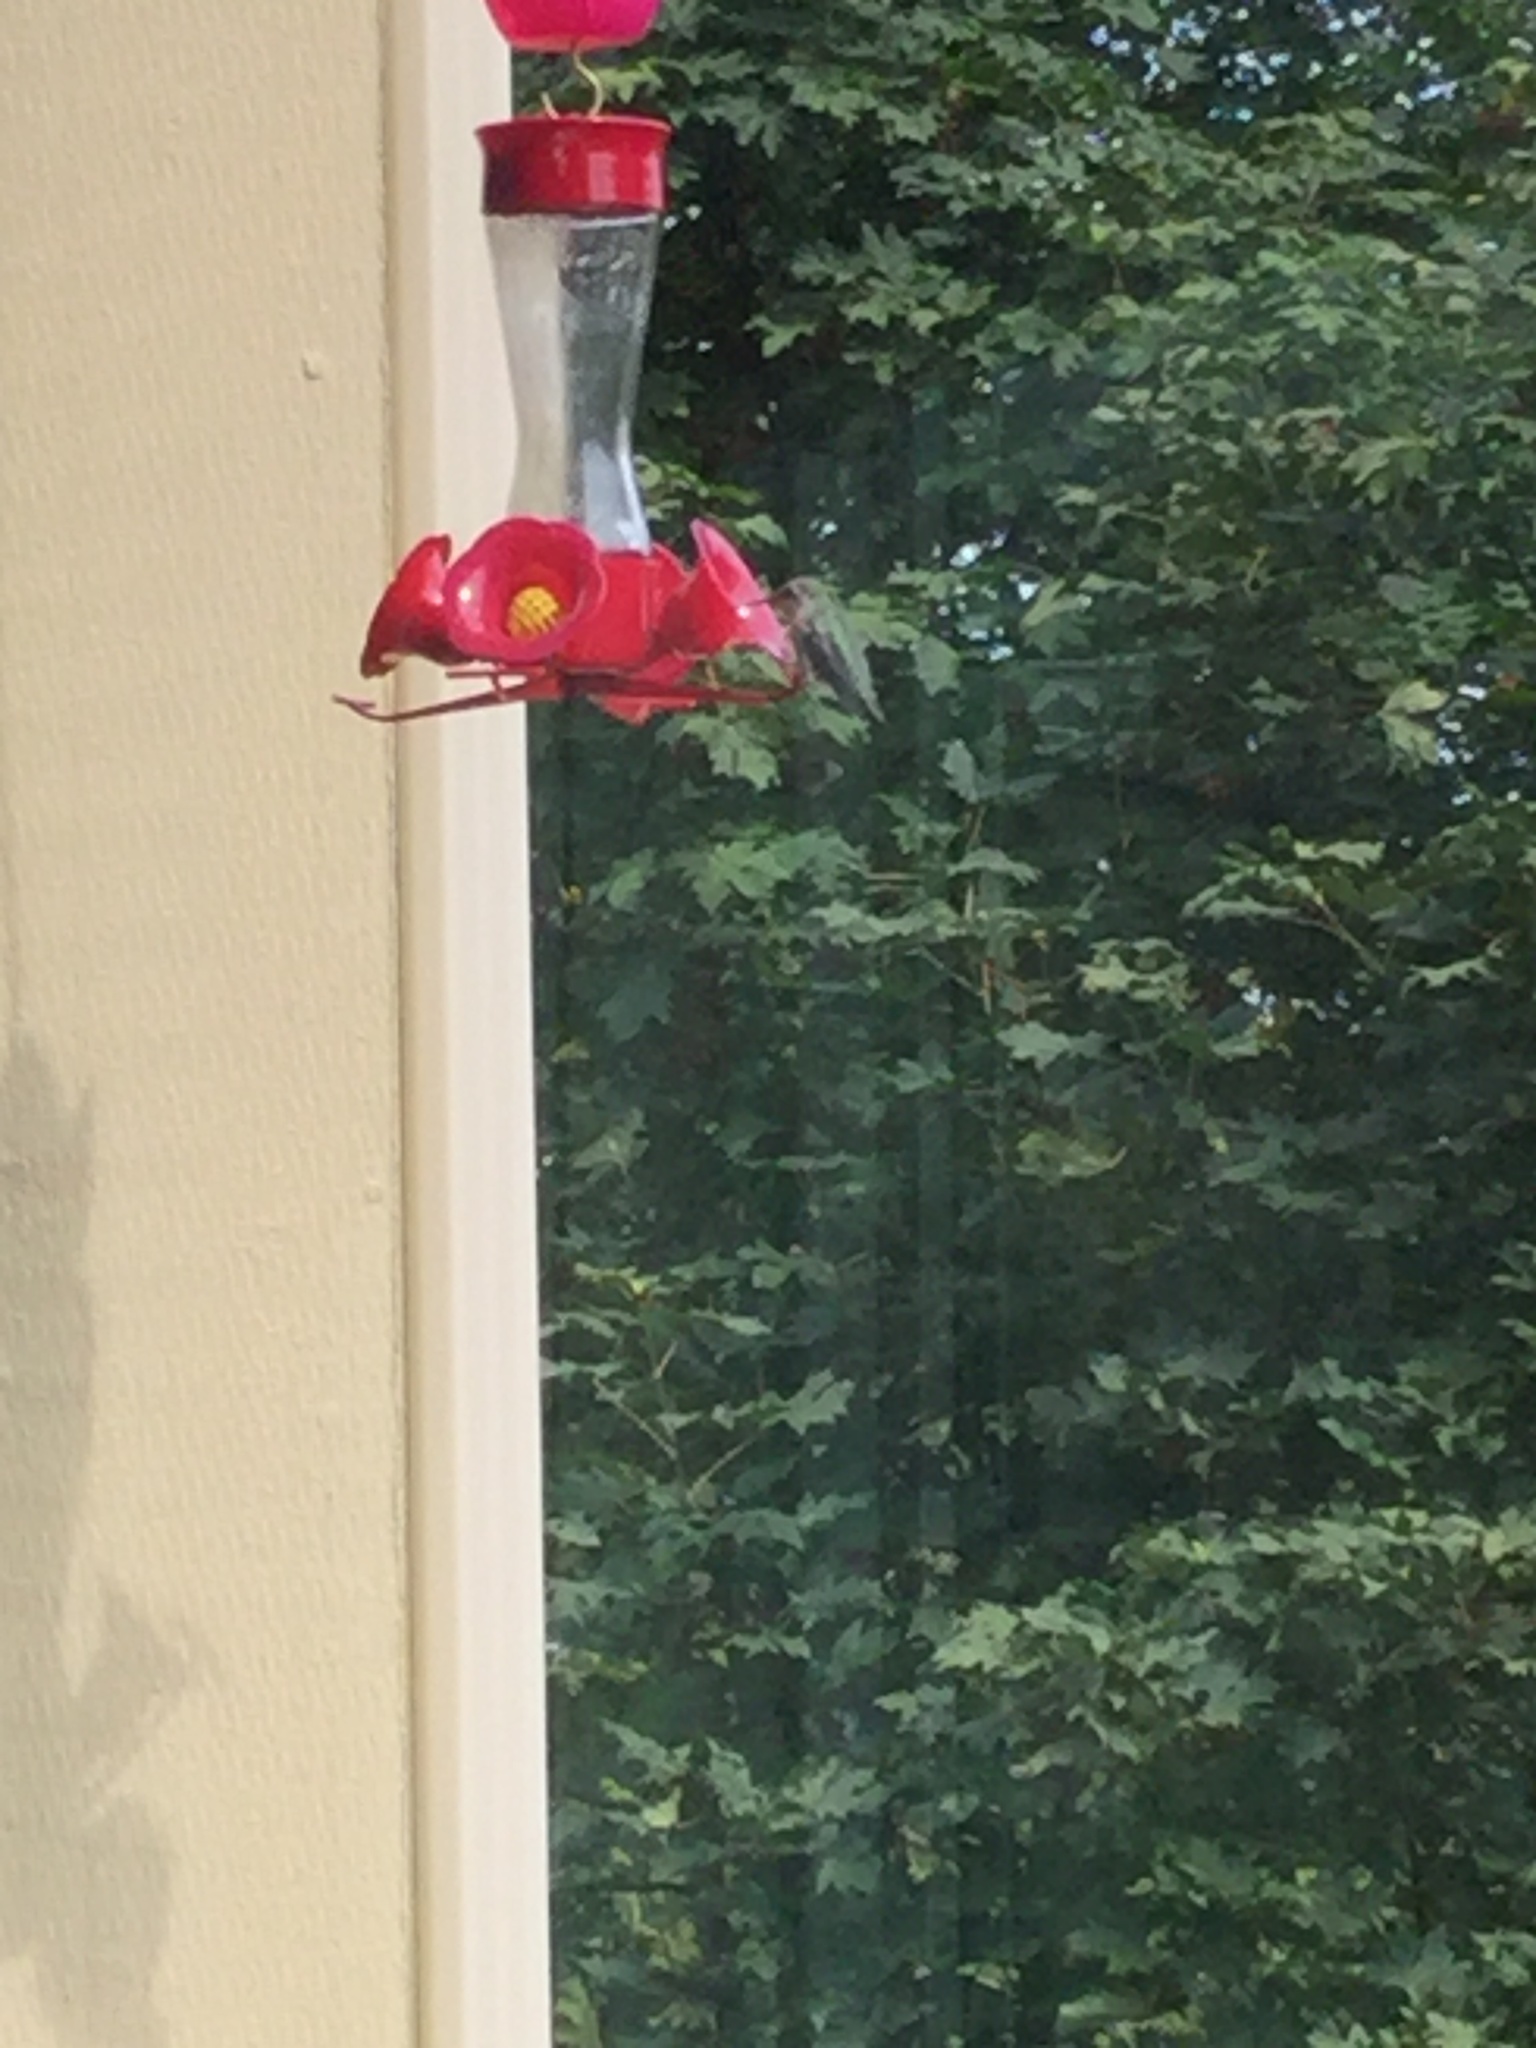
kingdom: Animalia
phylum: Chordata
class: Aves
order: Apodiformes
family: Trochilidae
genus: Calypte
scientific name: Calypte anna
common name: Anna's hummingbird
